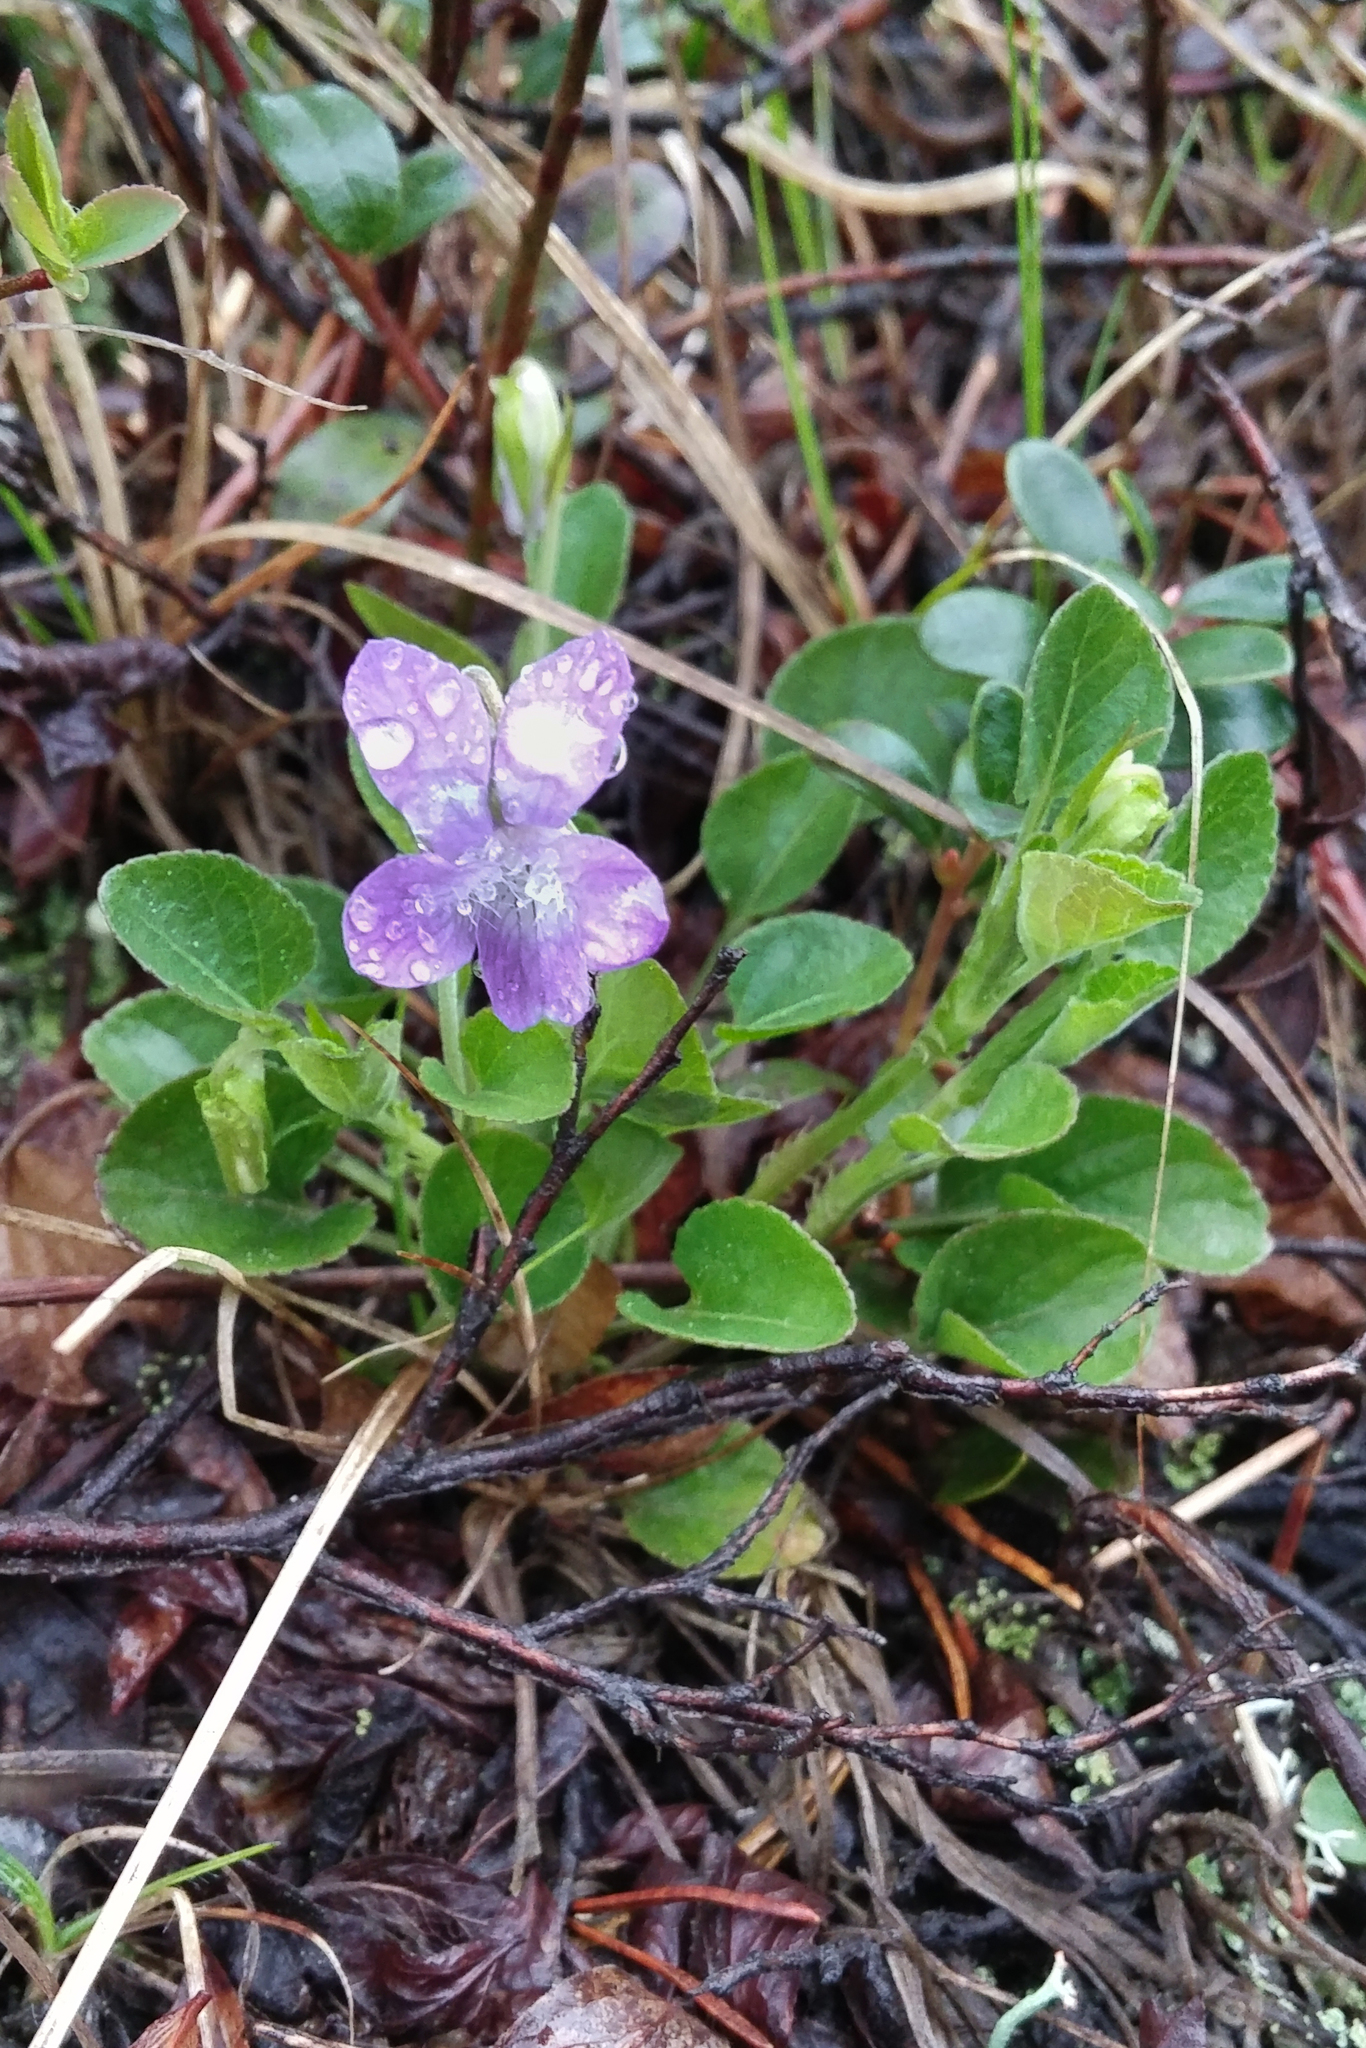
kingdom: Plantae
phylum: Tracheophyta
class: Magnoliopsida
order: Malpighiales
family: Violaceae
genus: Viola
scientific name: Viola adunca
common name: Sand violet
